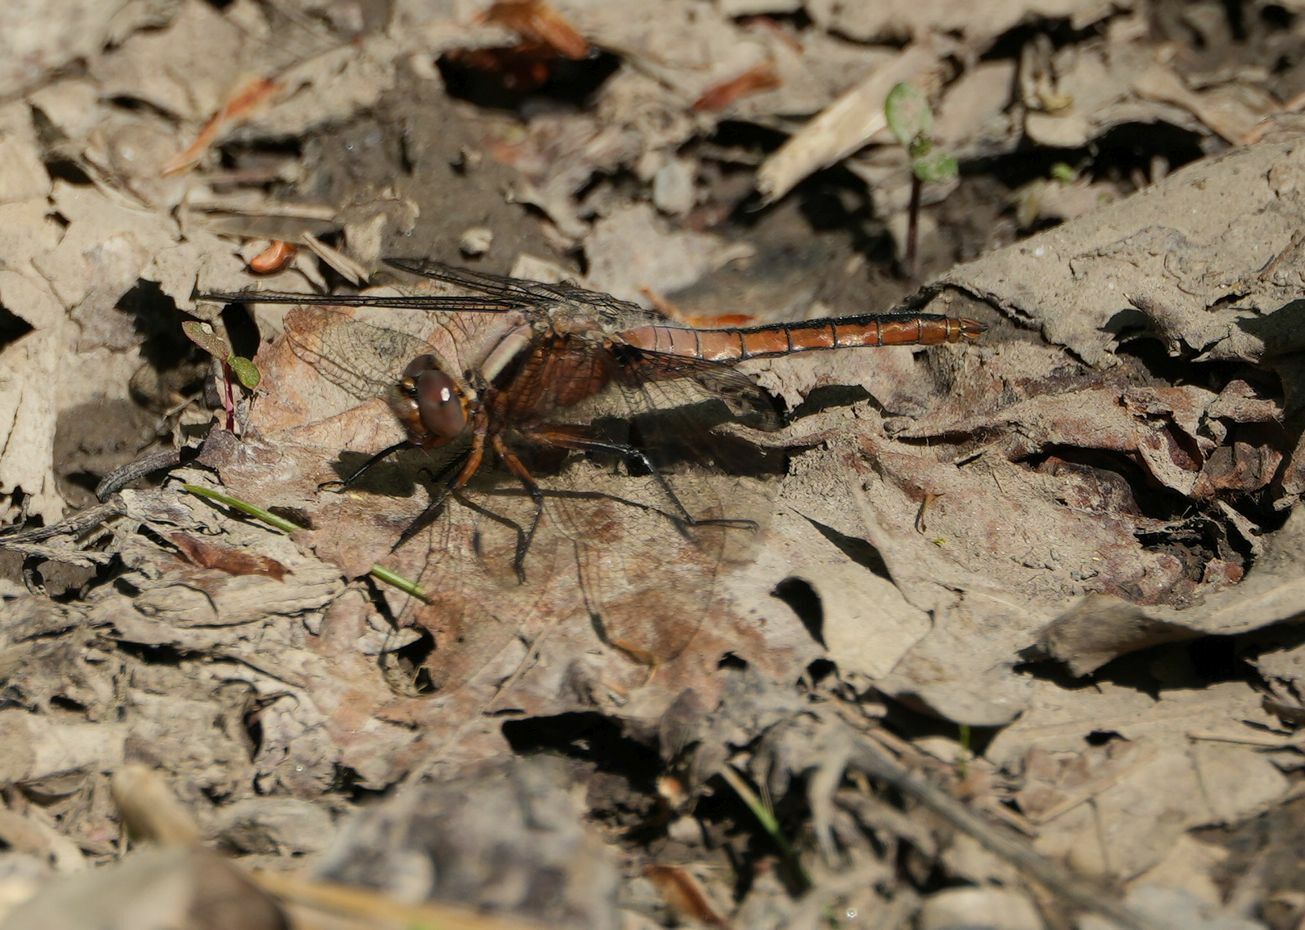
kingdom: Animalia
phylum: Arthropoda
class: Insecta
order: Odonata
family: Libellulidae
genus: Ladona
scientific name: Ladona julia
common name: Chalk-fronted corporal
